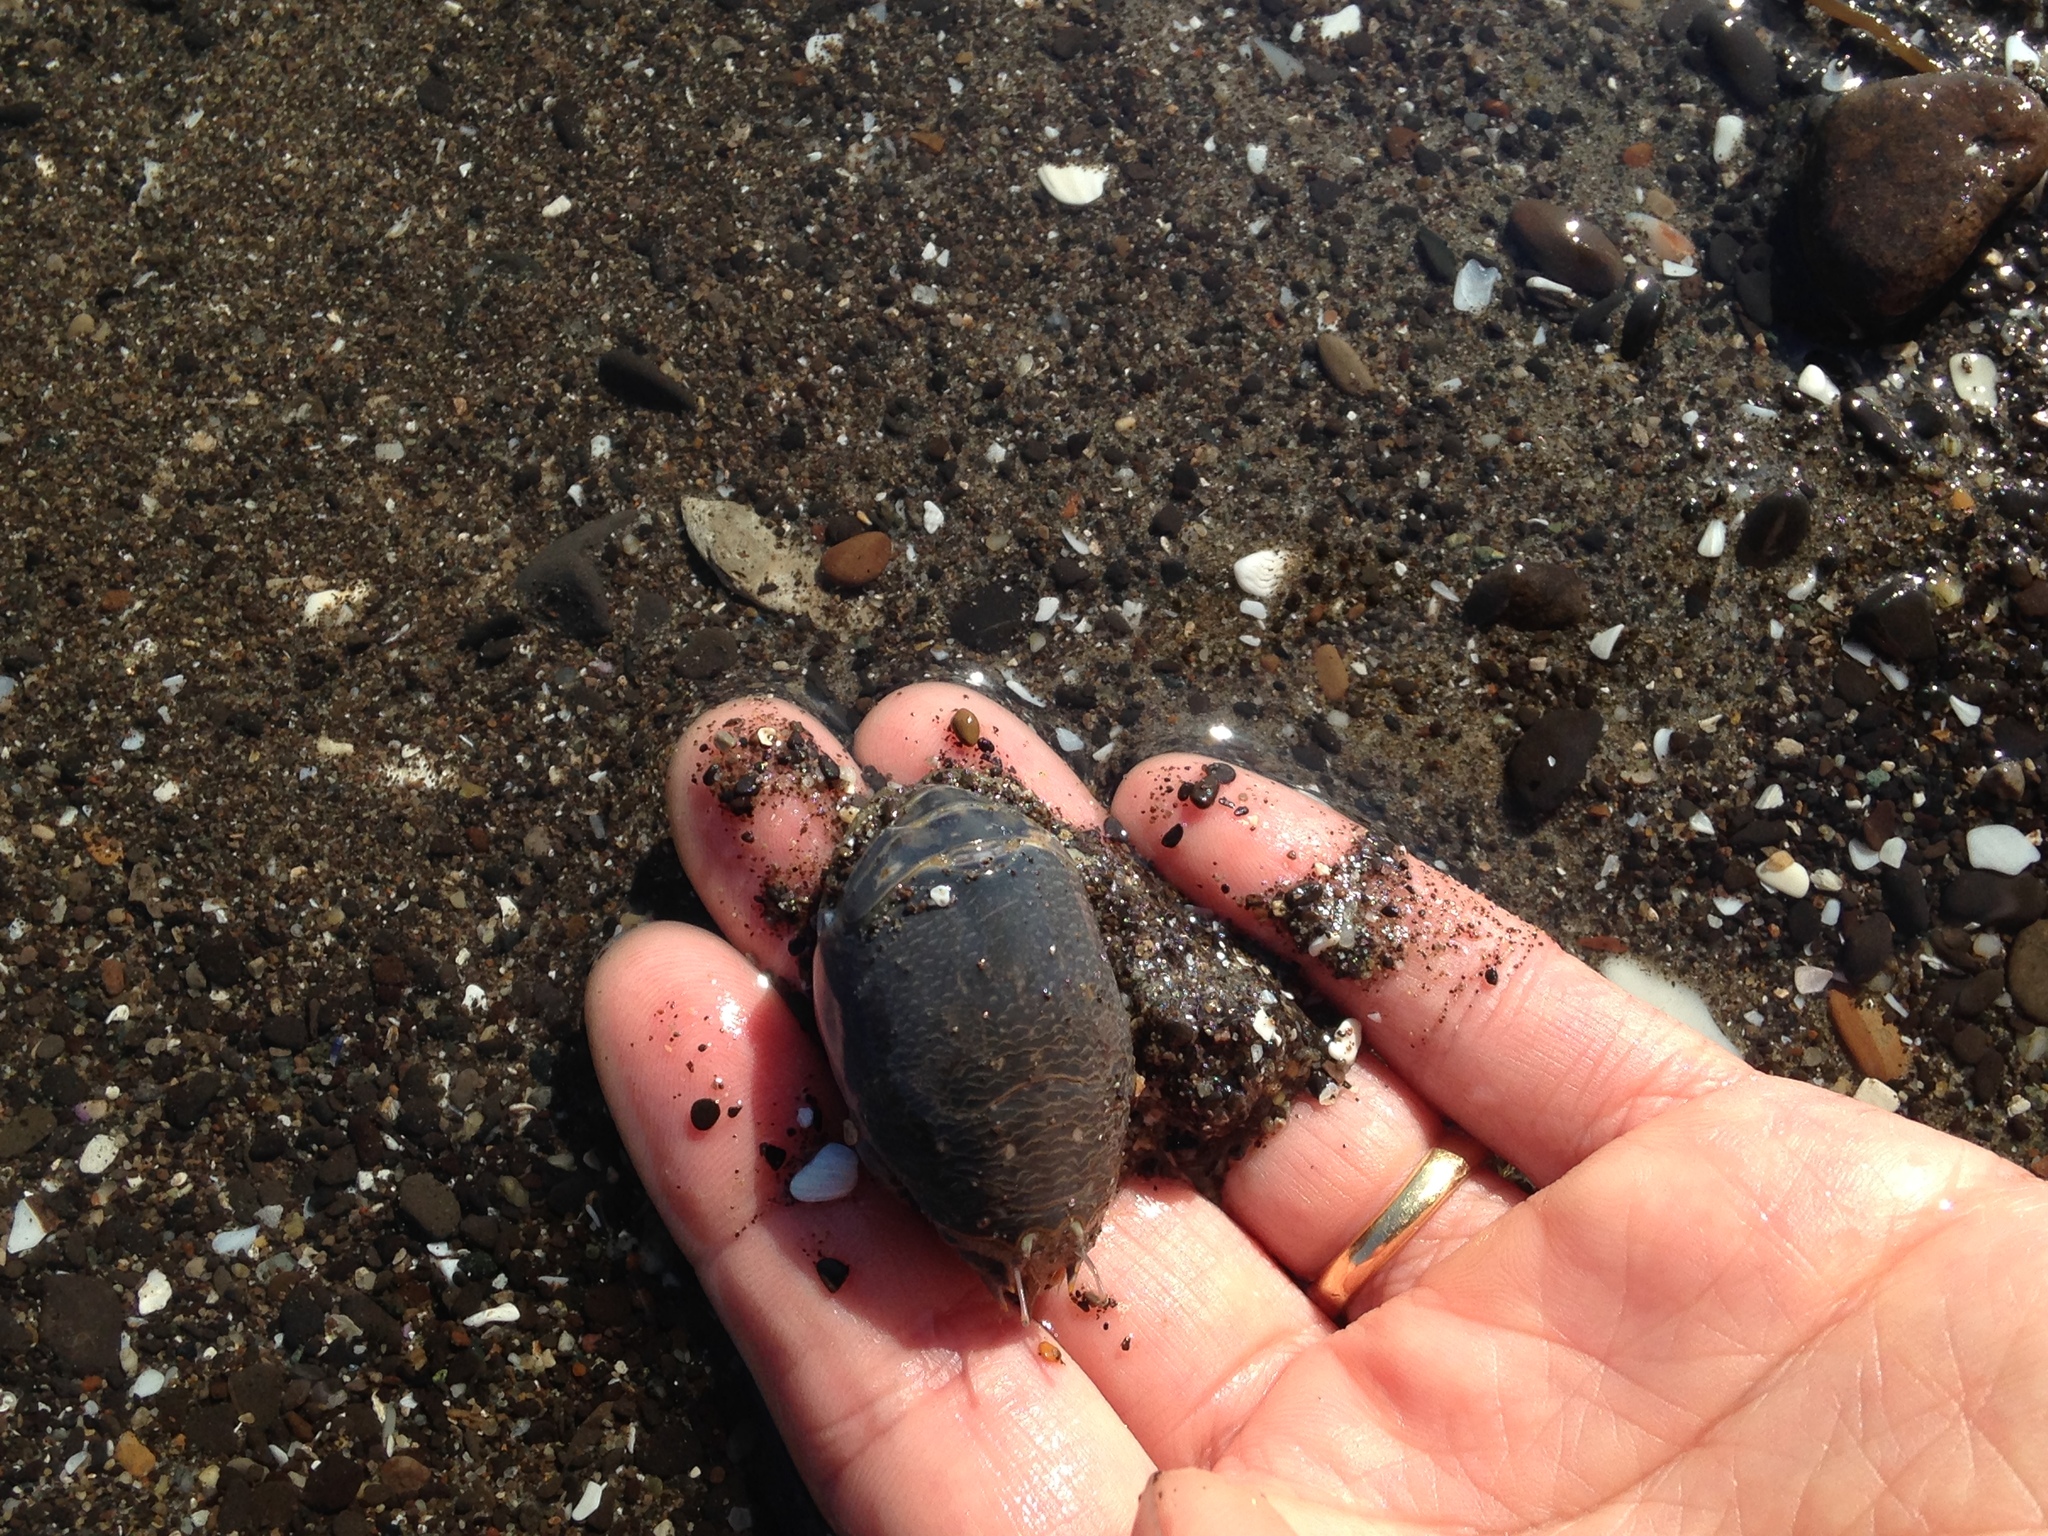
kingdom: Animalia
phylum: Arthropoda
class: Malacostraca
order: Decapoda
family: Hippidae
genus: Emerita
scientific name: Emerita analoga
